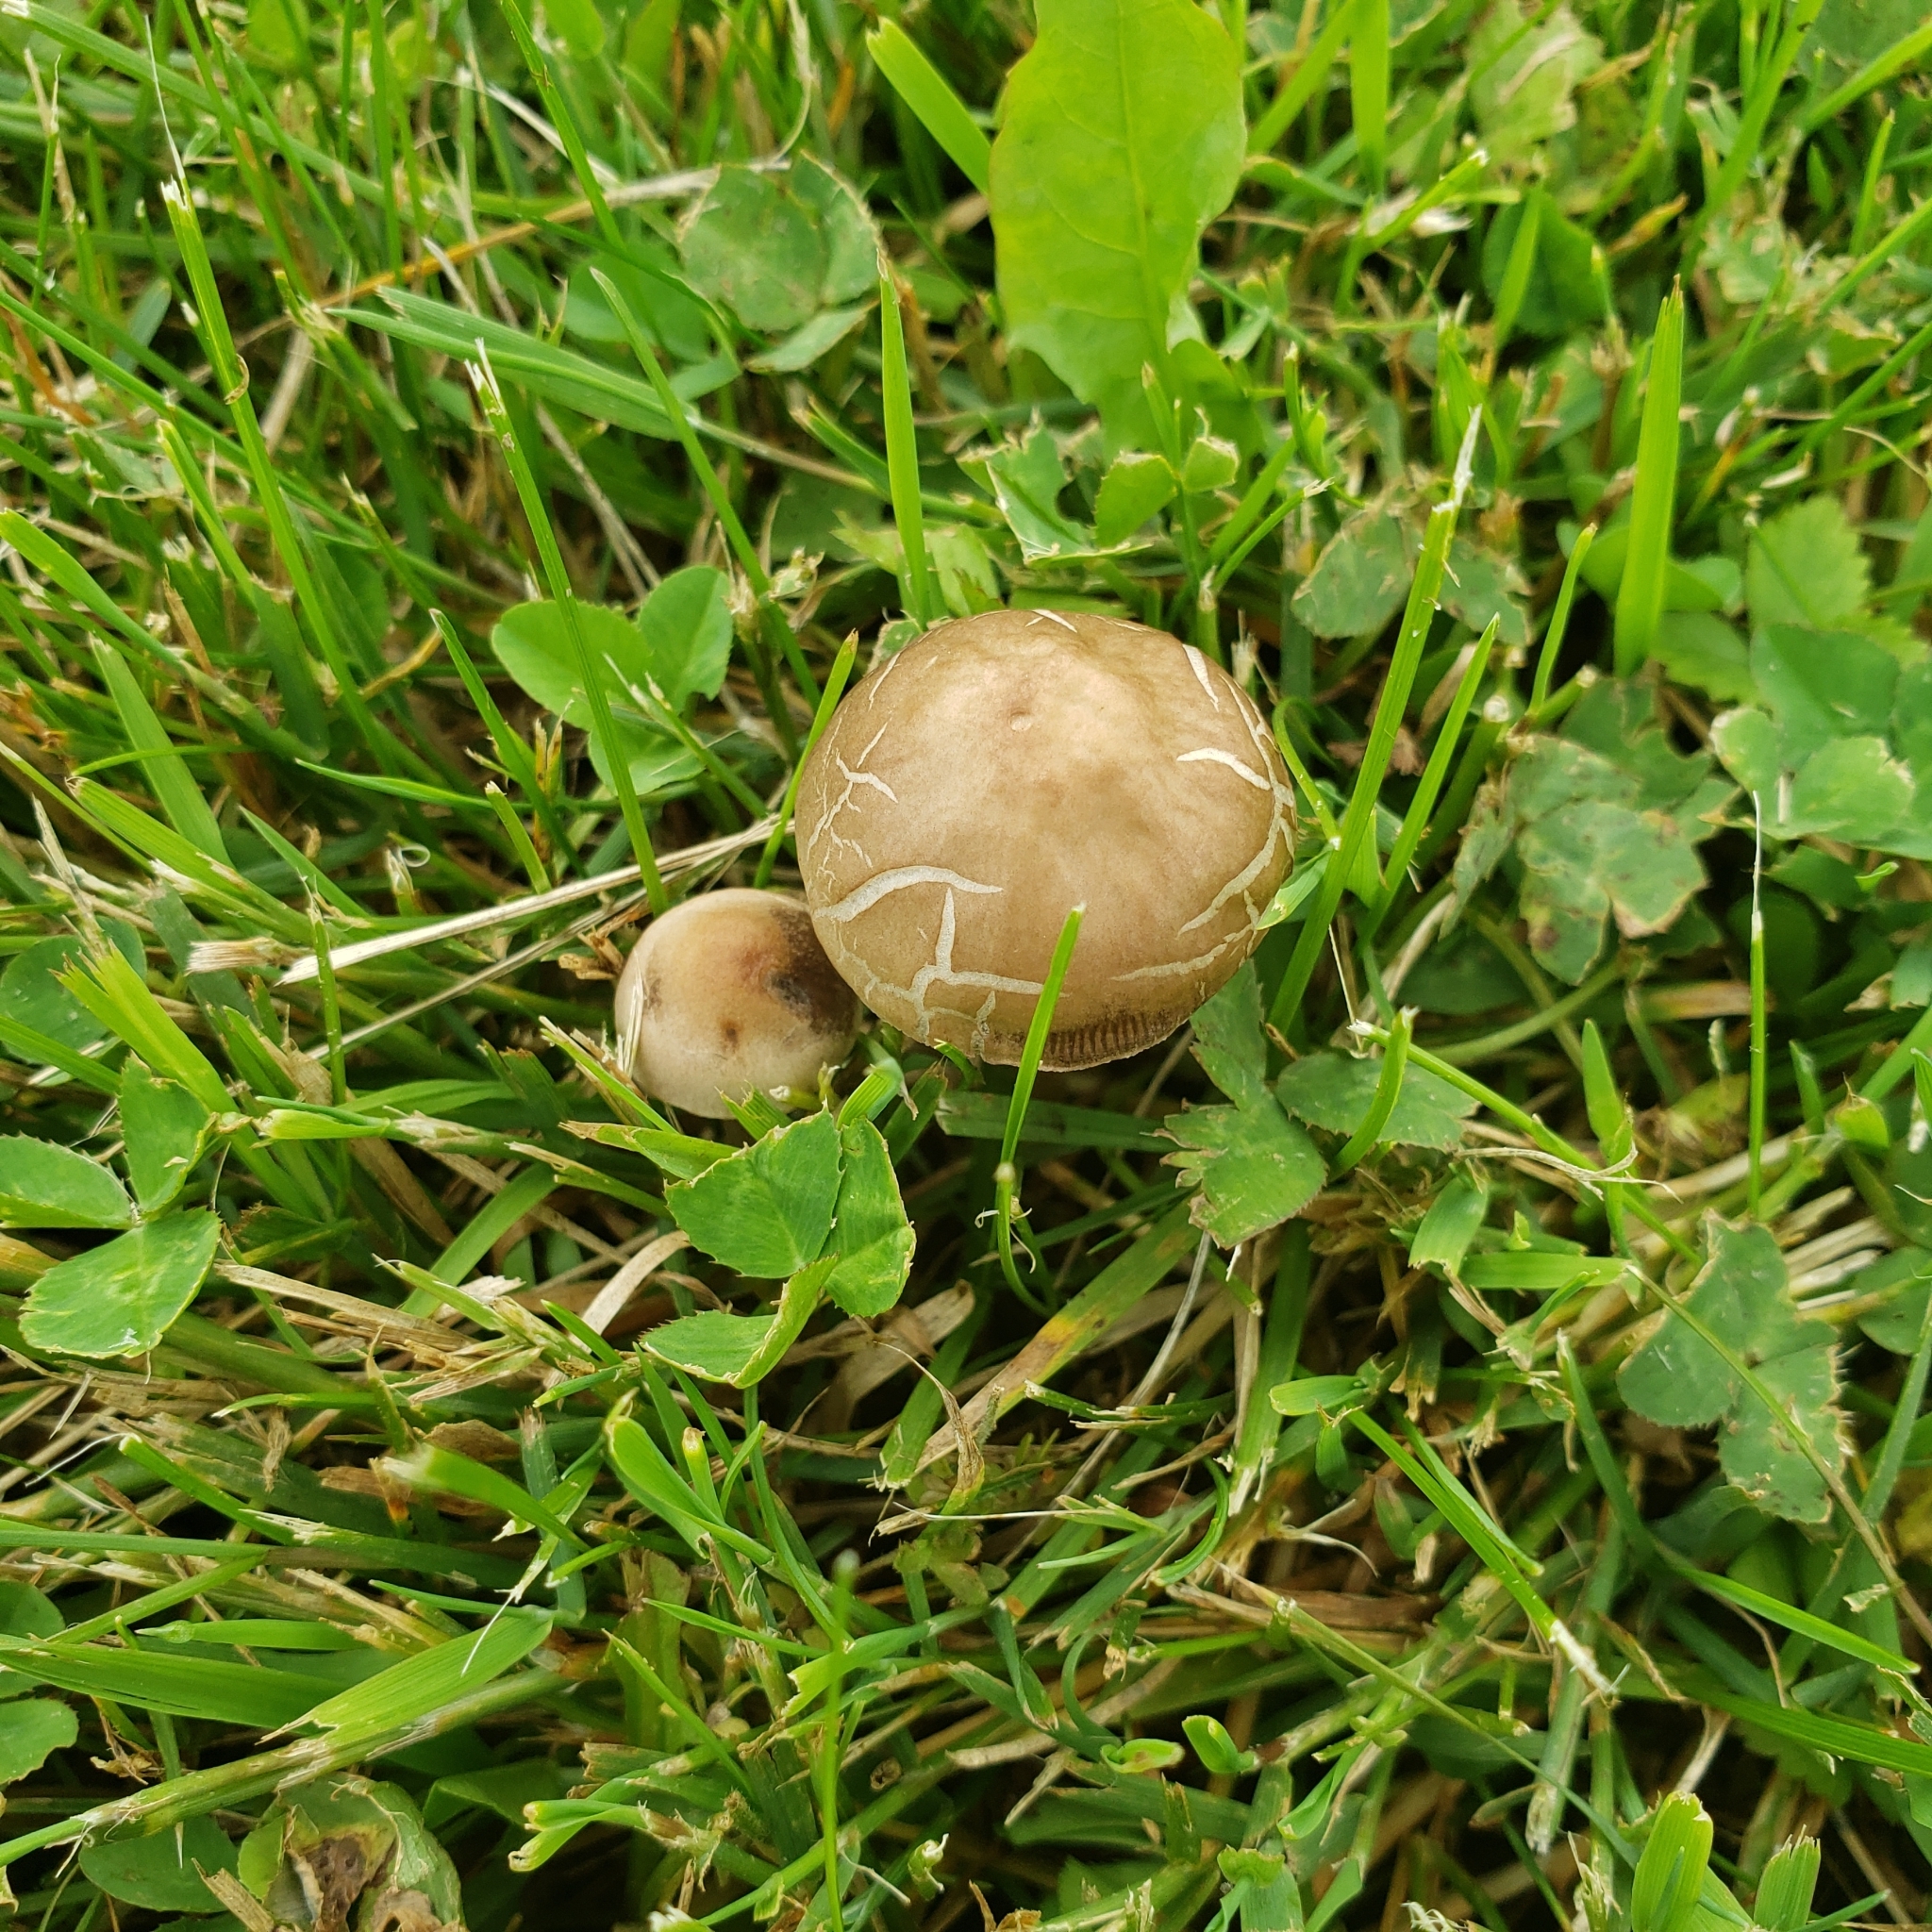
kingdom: Fungi
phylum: Basidiomycota
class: Agaricomycetes
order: Agaricales
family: Bolbitiaceae
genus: Panaeolina
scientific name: Panaeolina foenisecii
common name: Brown hay cap
